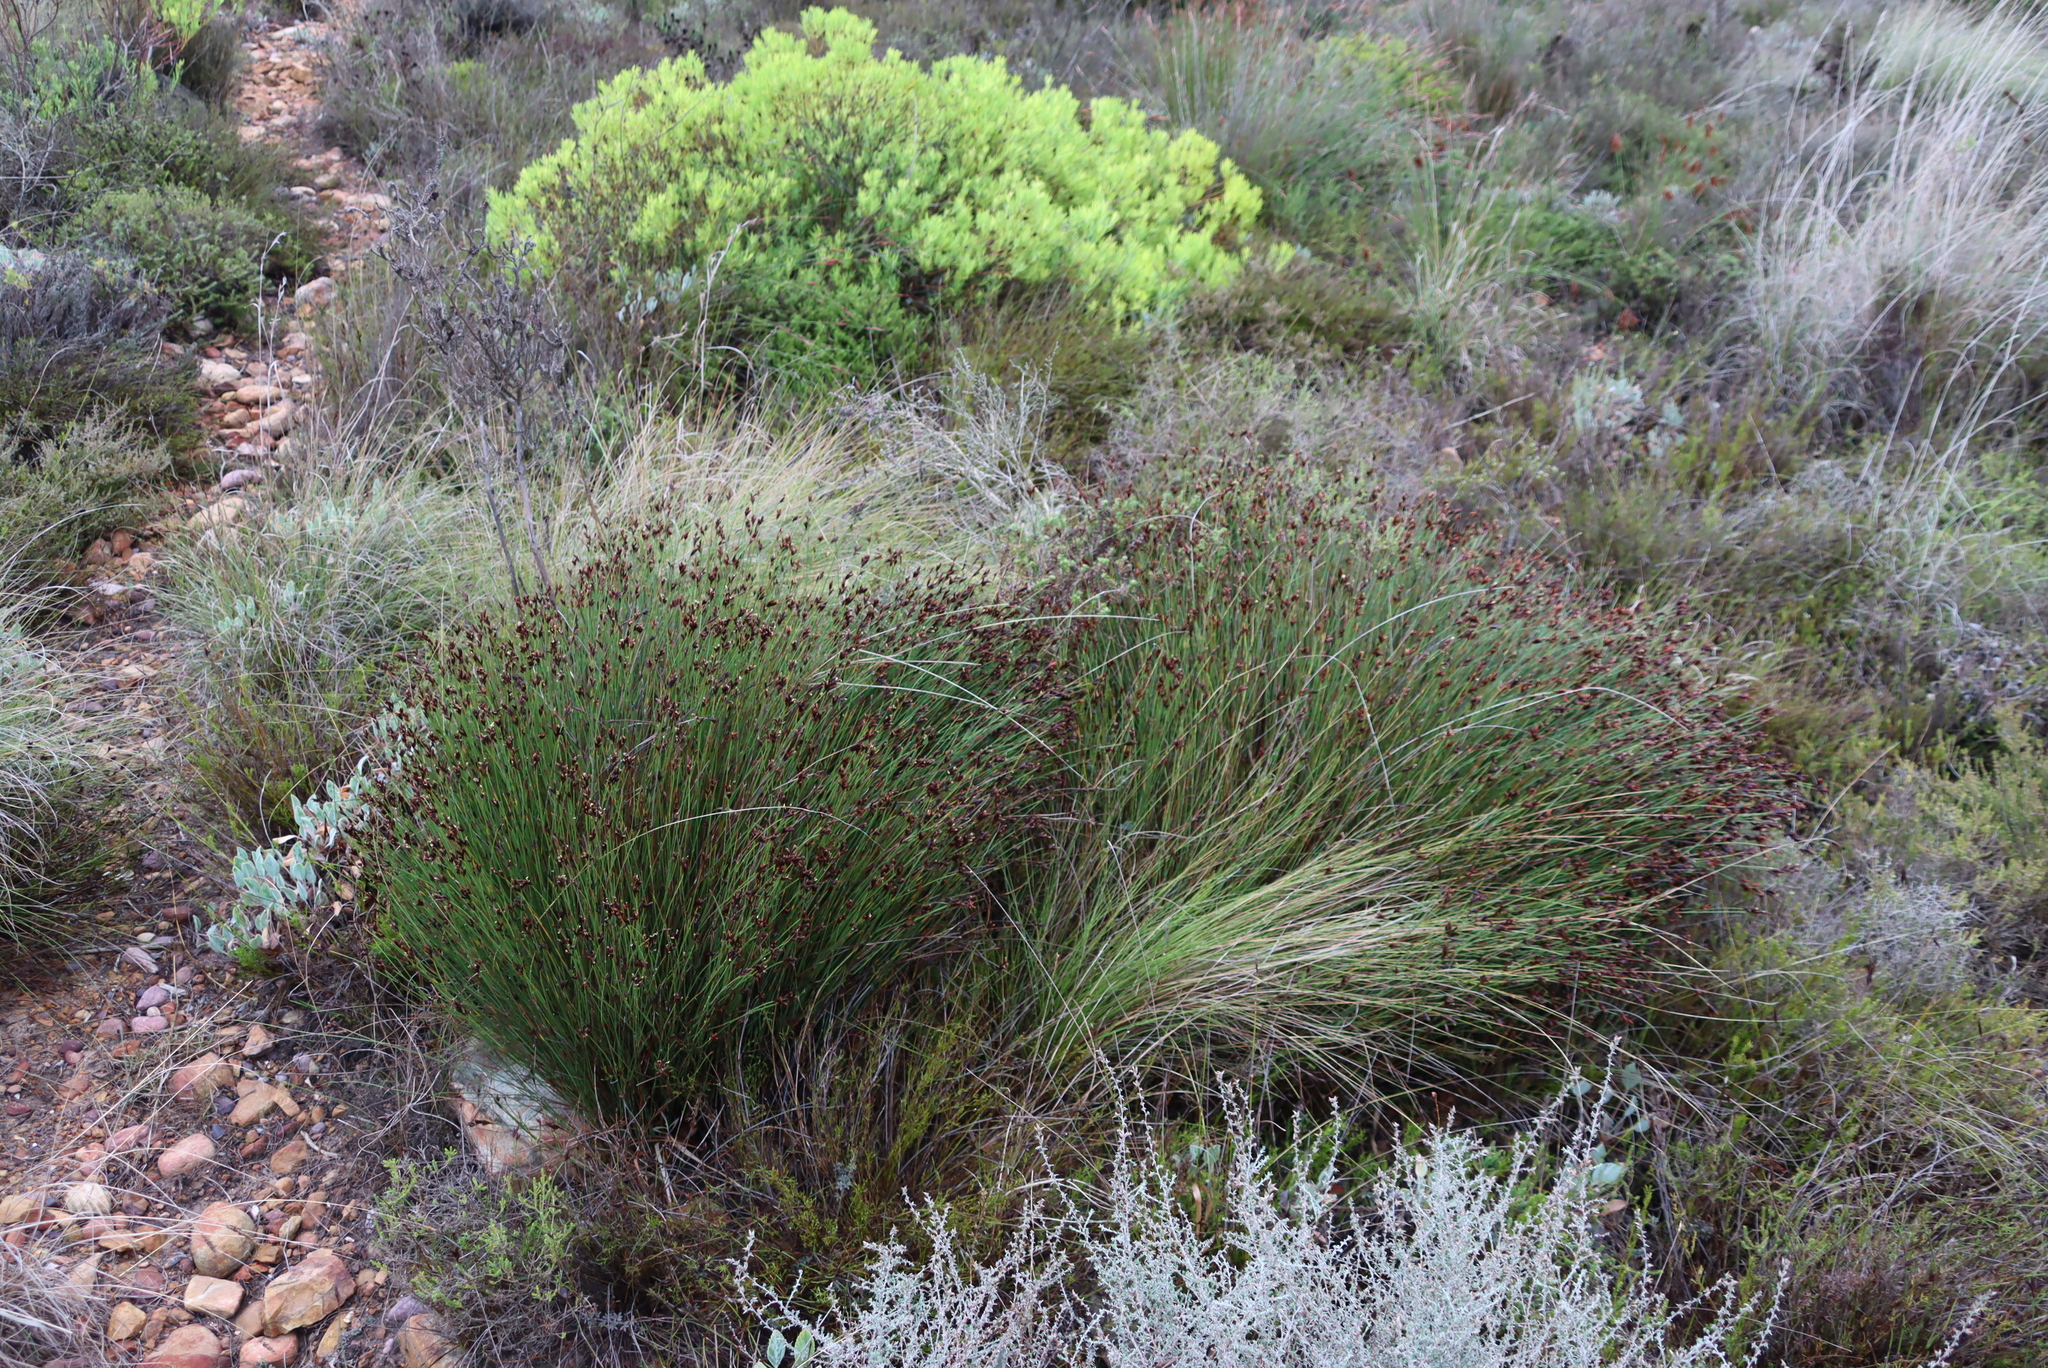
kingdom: Plantae
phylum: Tracheophyta
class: Magnoliopsida
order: Proteales
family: Proteaceae
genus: Leucadendron
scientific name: Leucadendron salignum
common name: Common sunshine conebush
